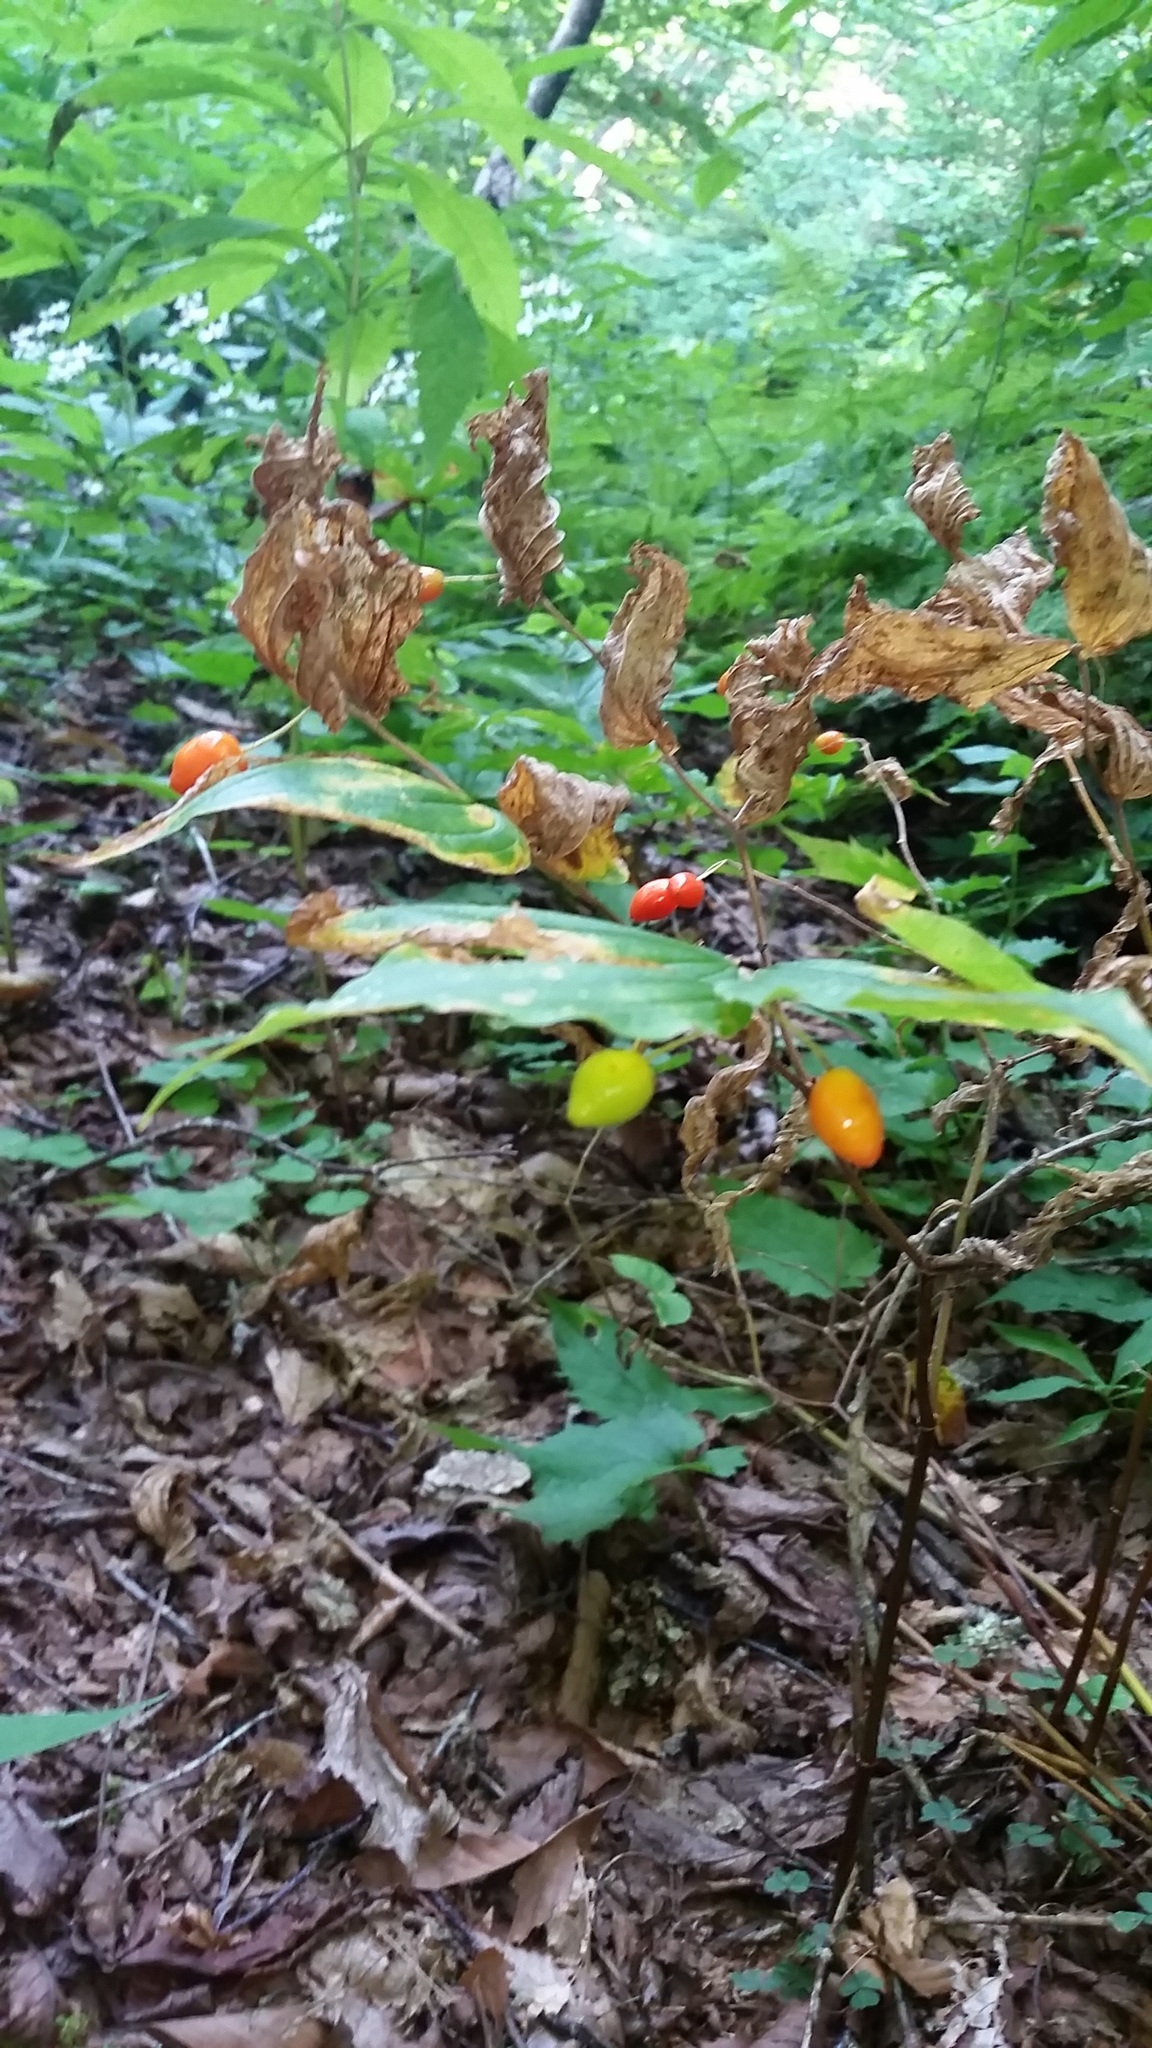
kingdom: Plantae
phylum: Tracheophyta
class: Liliopsida
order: Liliales
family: Liliaceae
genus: Prosartes
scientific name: Prosartes lanuginosa
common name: Hairy mandarin
